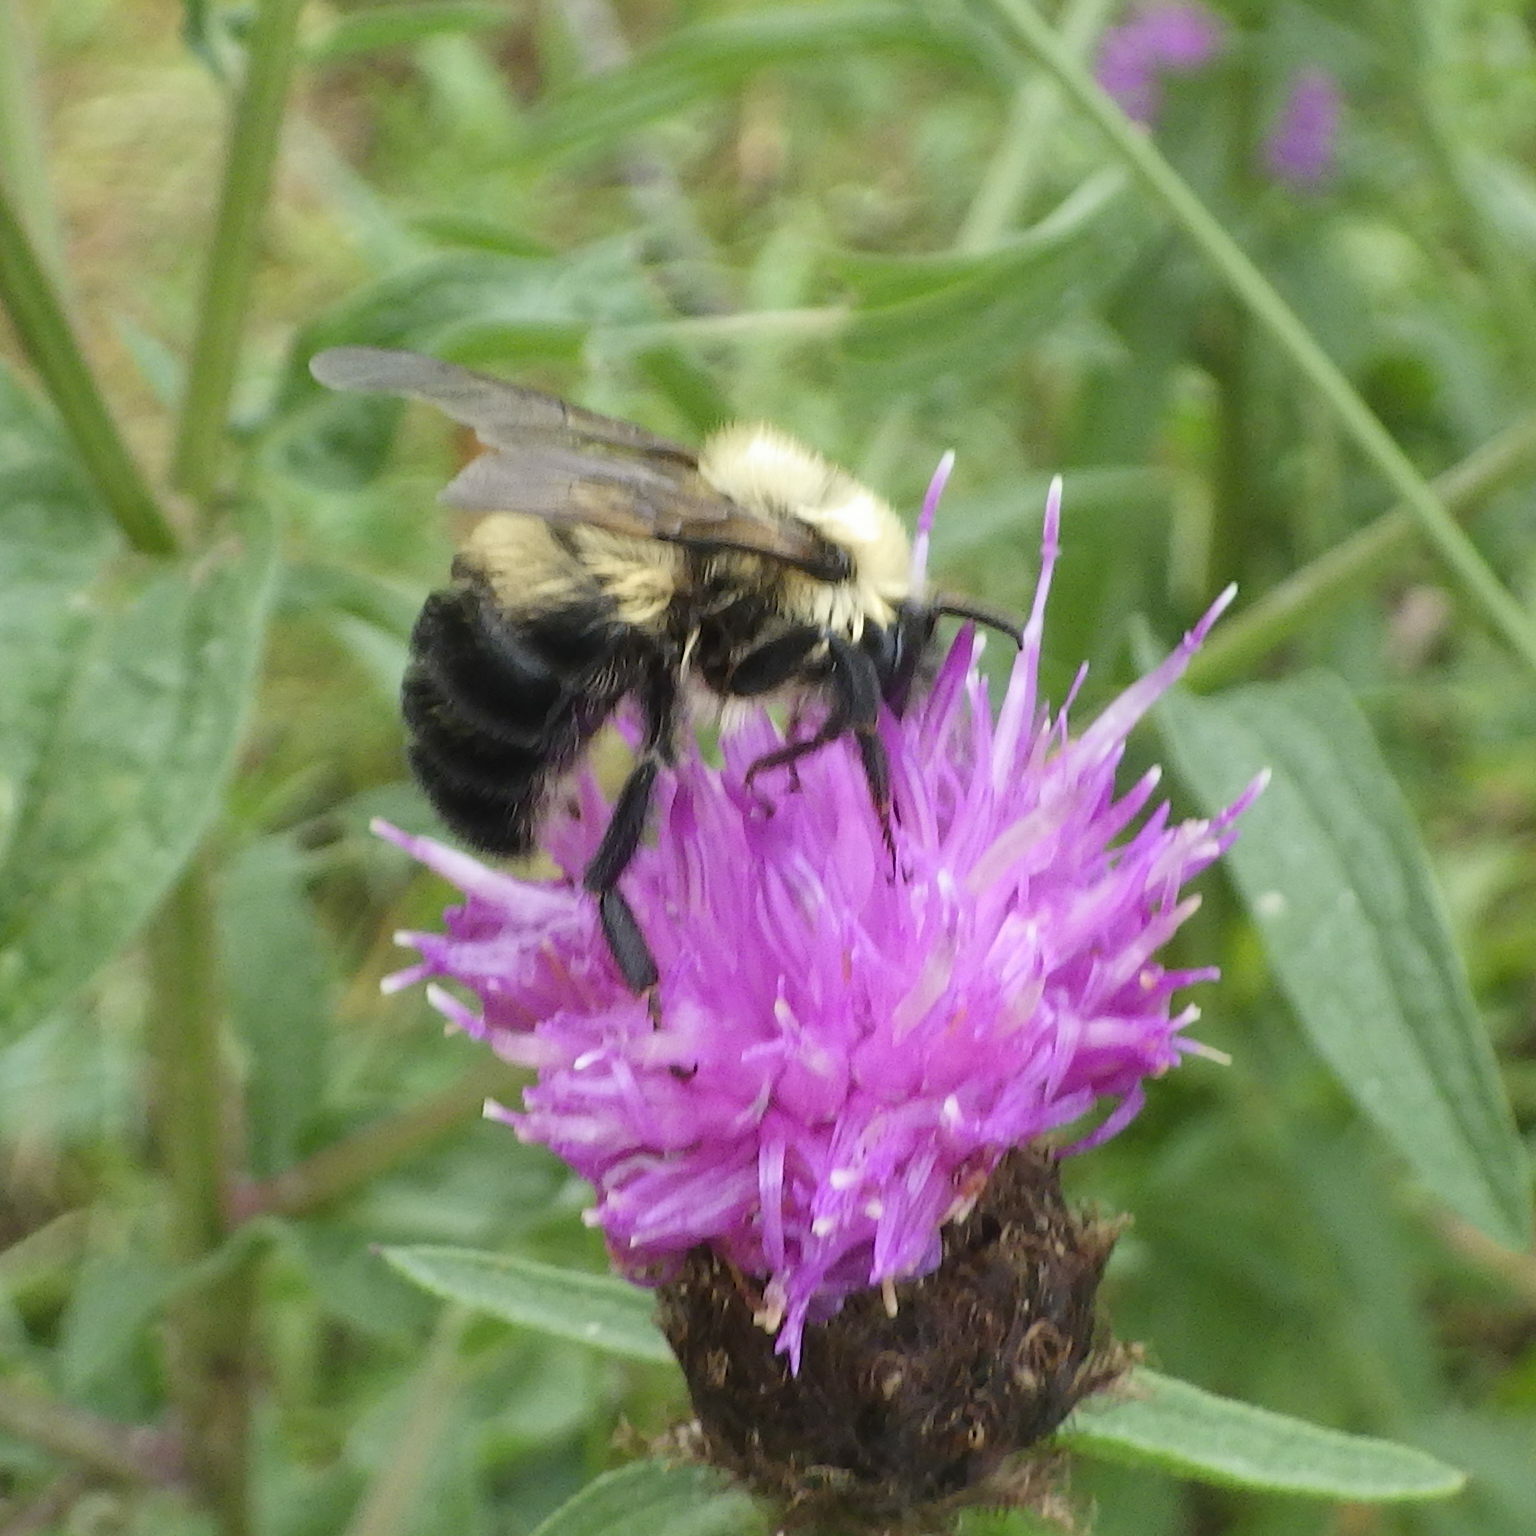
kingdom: Animalia
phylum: Arthropoda
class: Insecta
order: Hymenoptera
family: Apidae
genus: Bombus
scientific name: Bombus bimaculatus
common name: Two-spotted bumble bee
